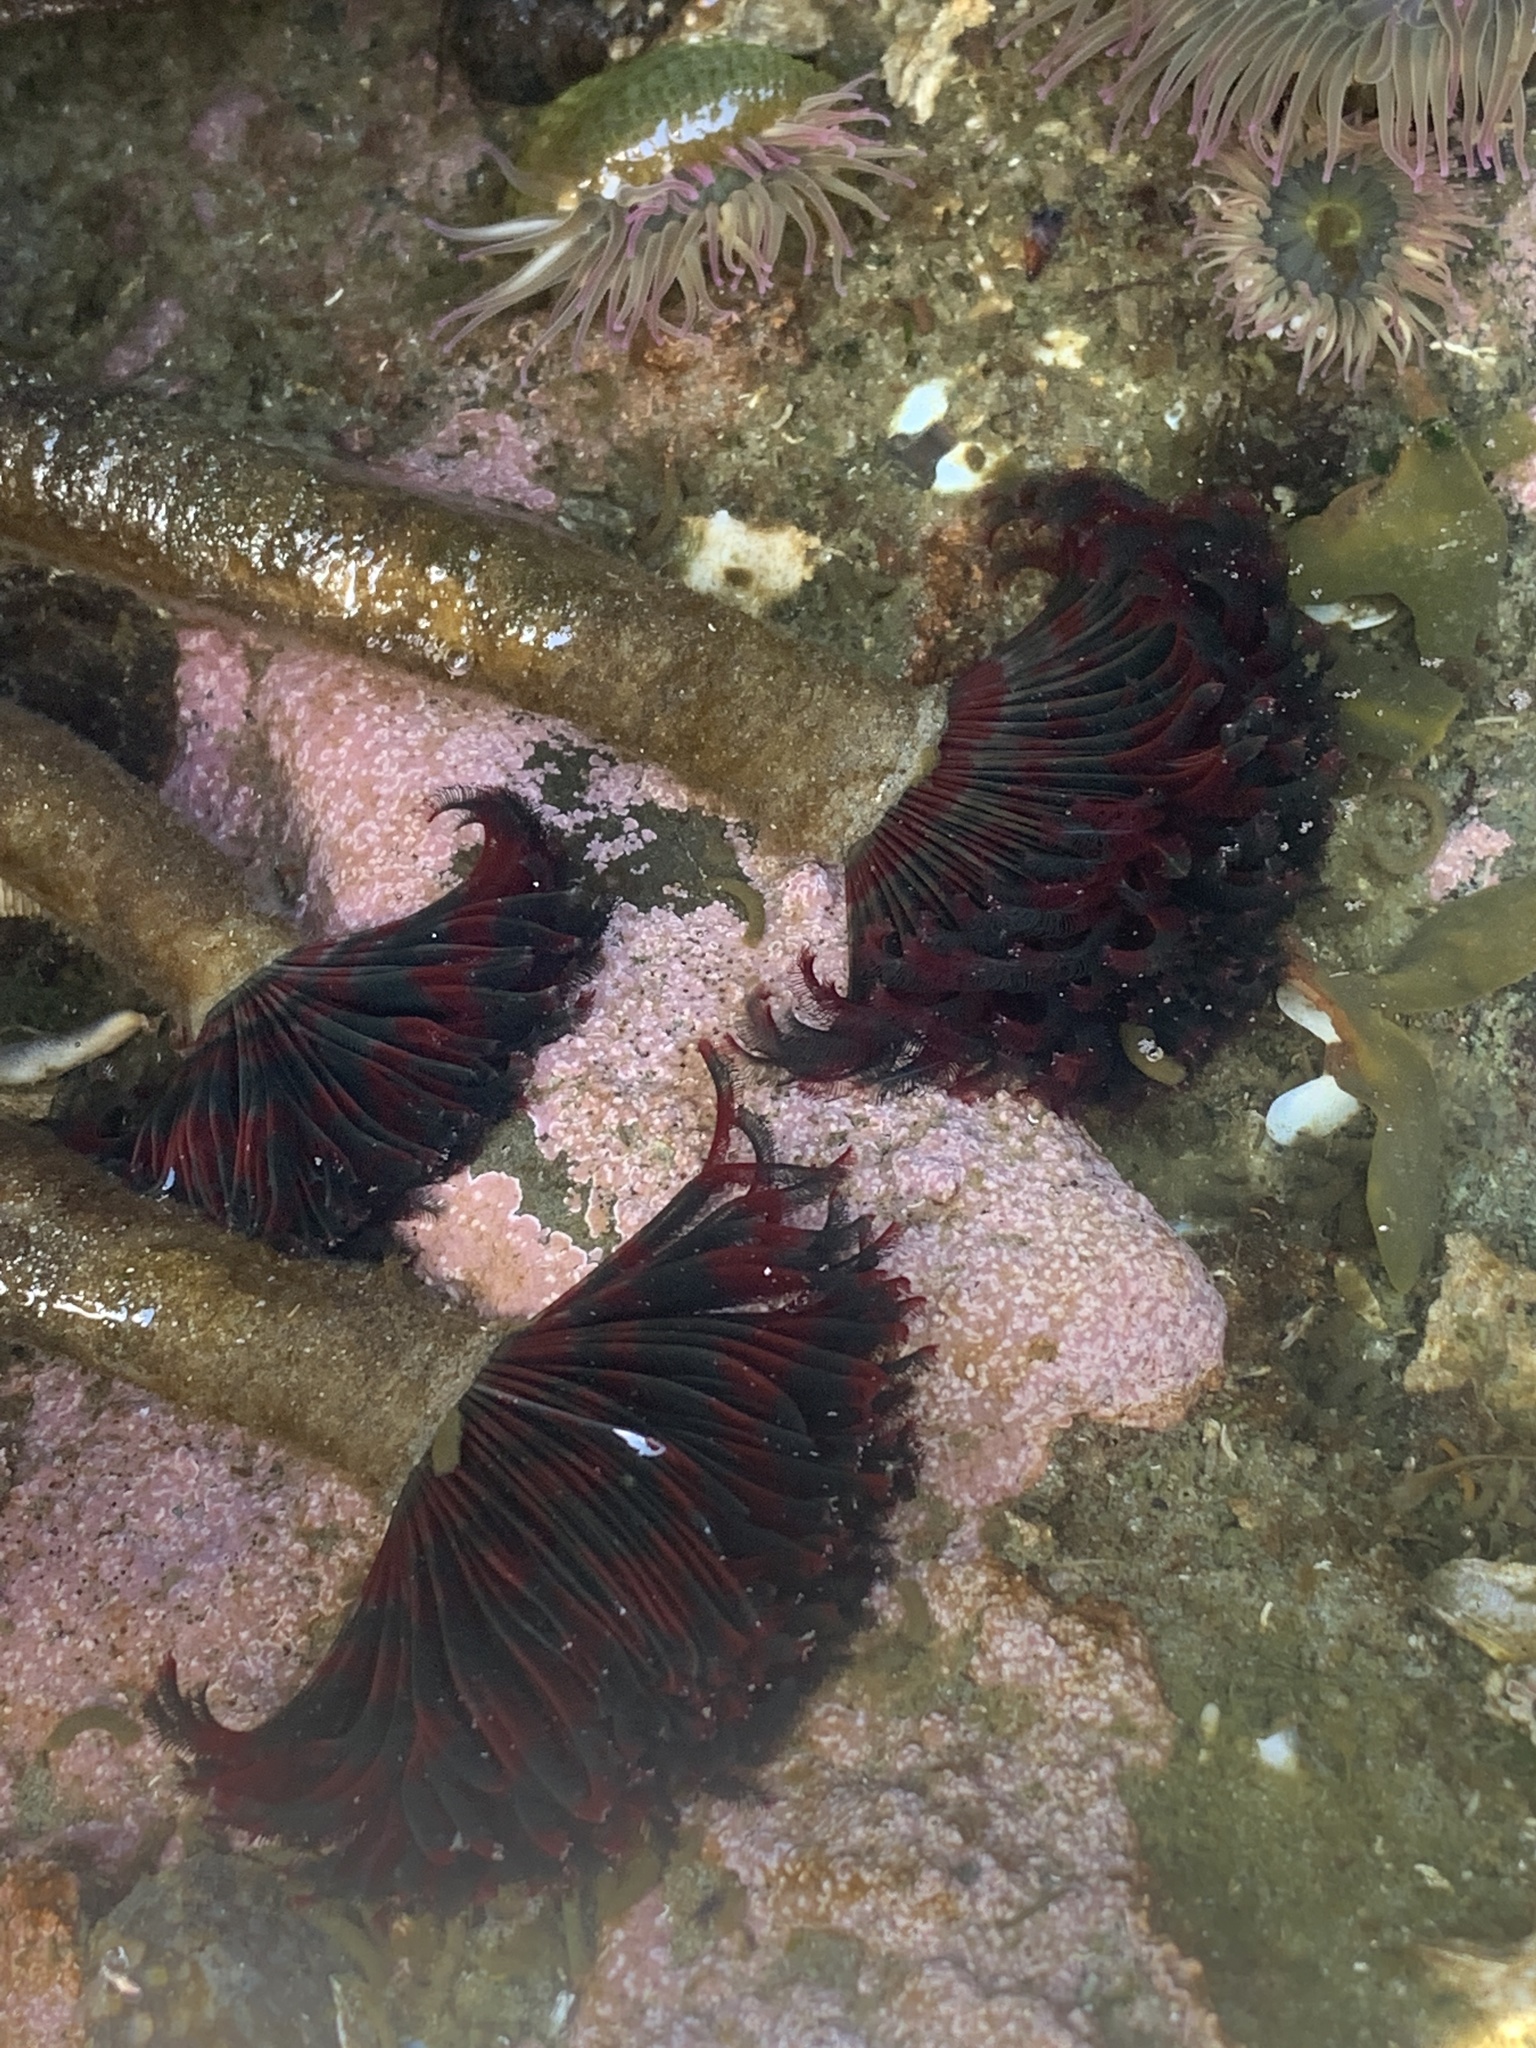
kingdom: Animalia
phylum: Annelida
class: Polychaeta
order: Sabellida
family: Sabellidae
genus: Eudistylia
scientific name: Eudistylia vancouveri
